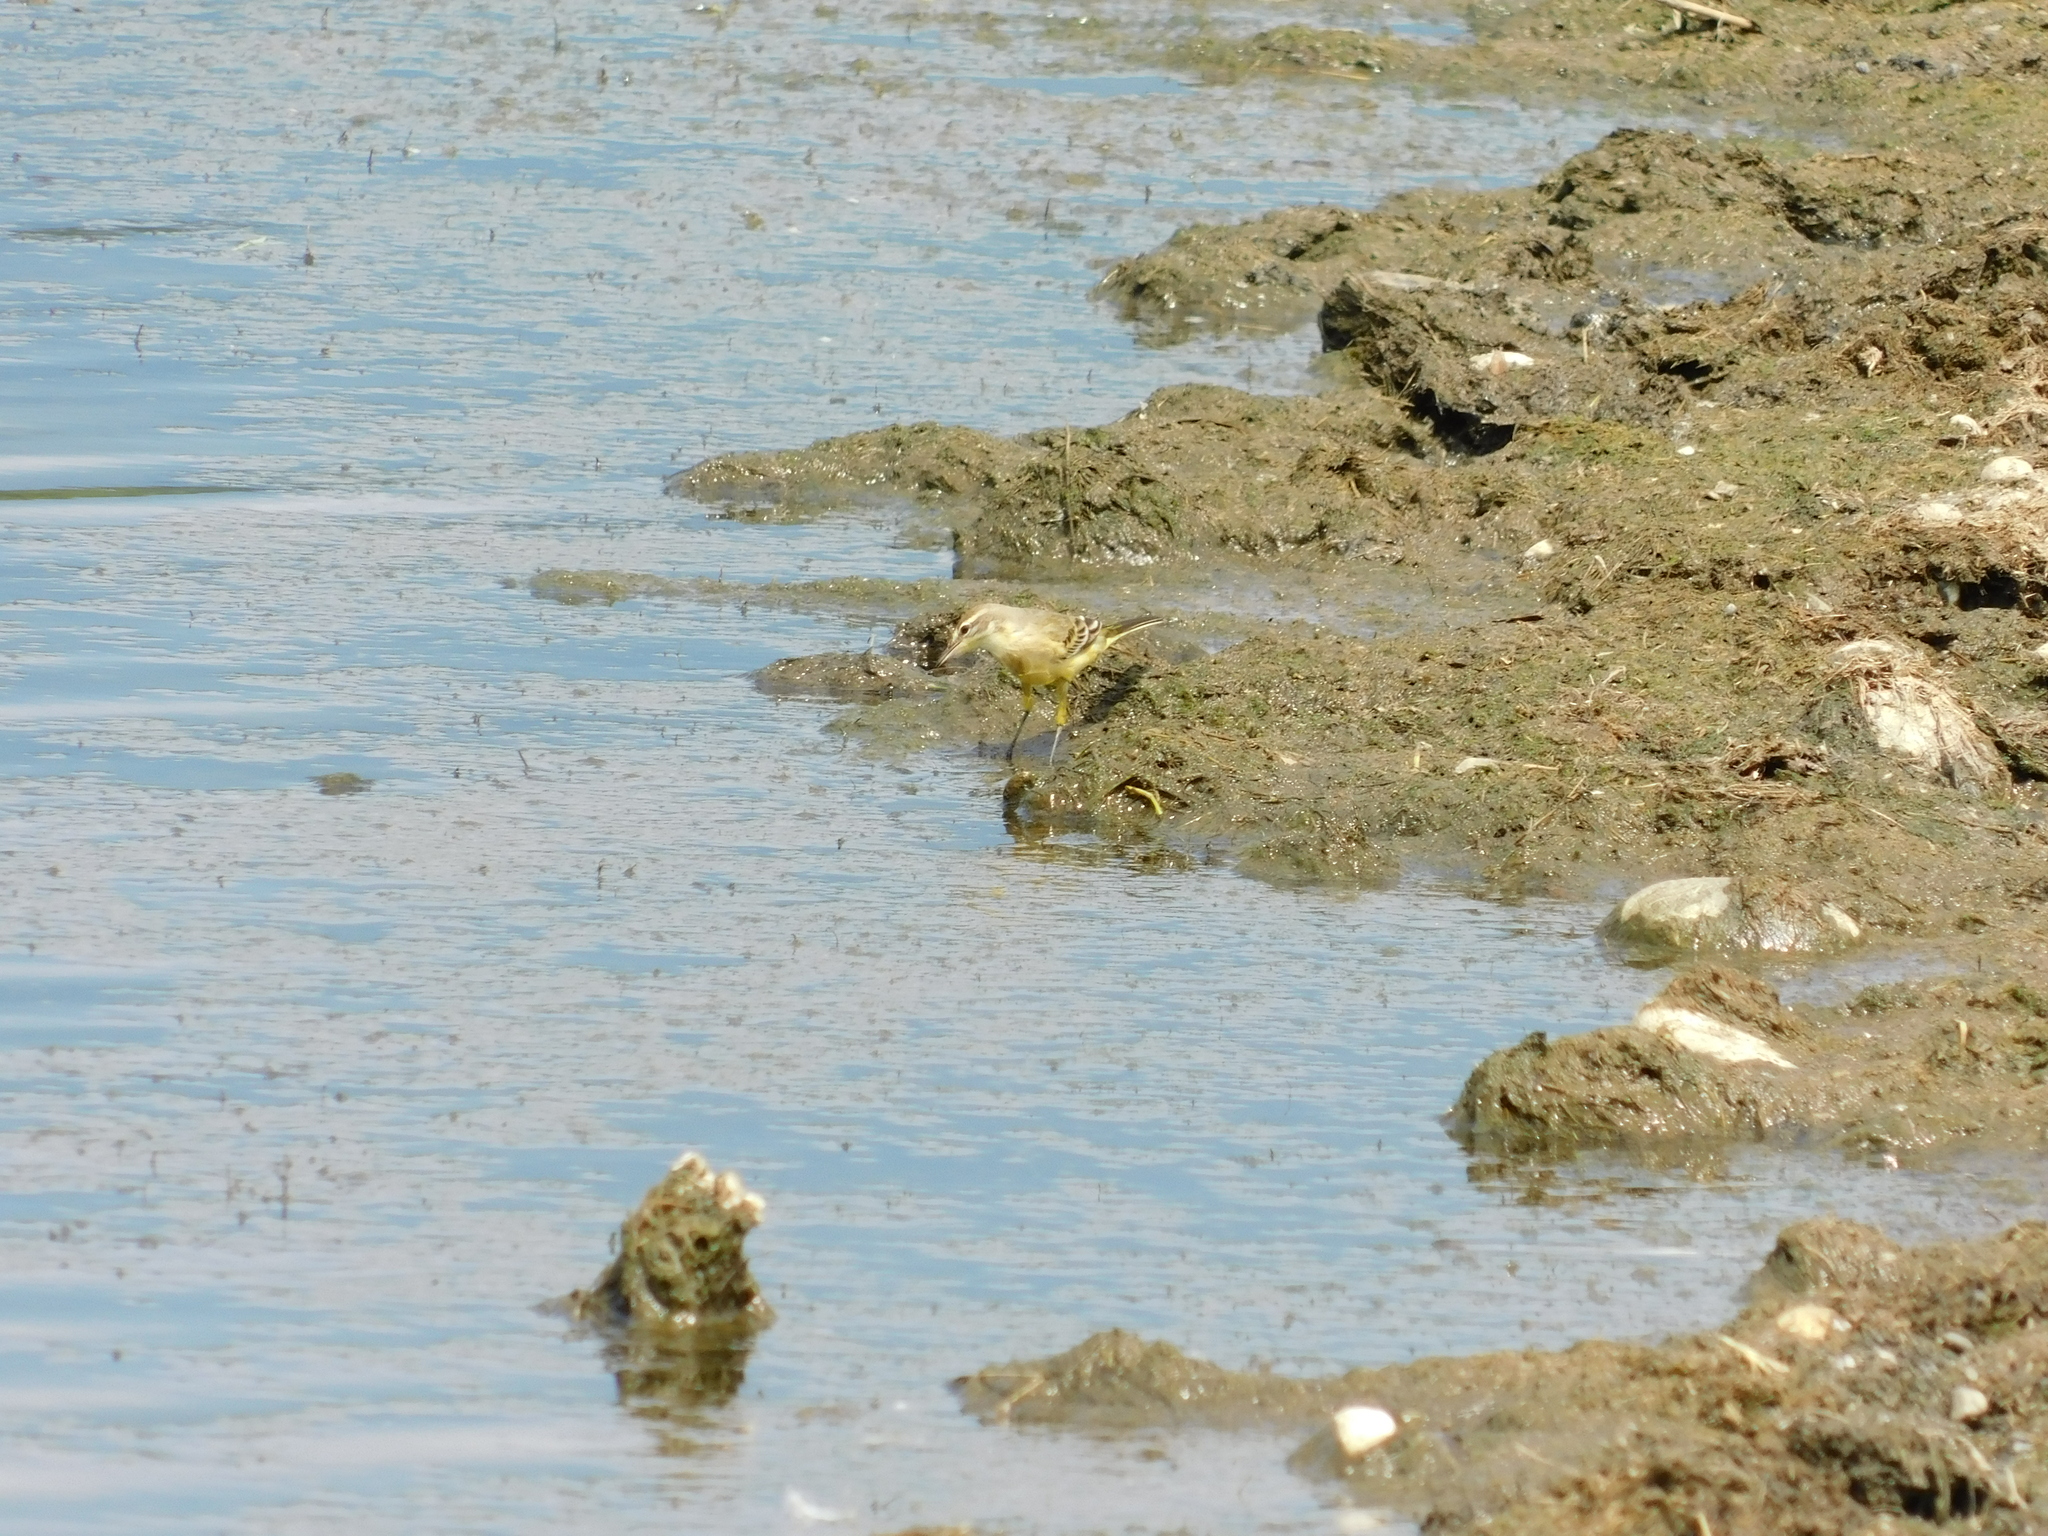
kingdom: Animalia
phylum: Chordata
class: Aves
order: Passeriformes
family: Motacillidae
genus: Motacilla
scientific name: Motacilla flava
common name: Western yellow wagtail
